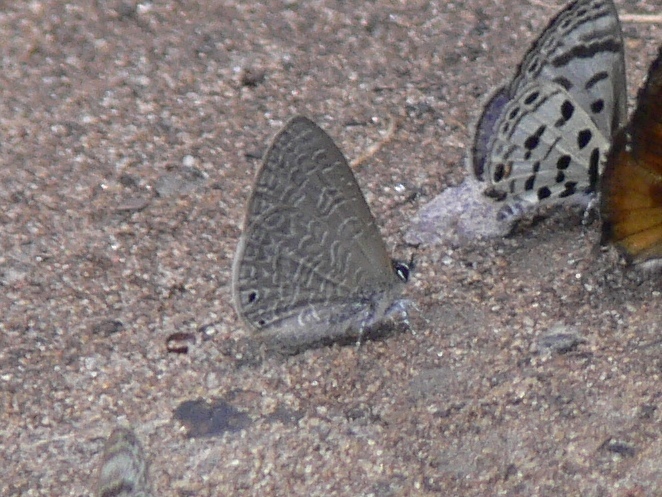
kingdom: Animalia
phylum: Arthropoda
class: Insecta
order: Lepidoptera
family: Lycaenidae
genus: Pseudonacaduba
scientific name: Pseudonacaduba sichela
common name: African line blue
